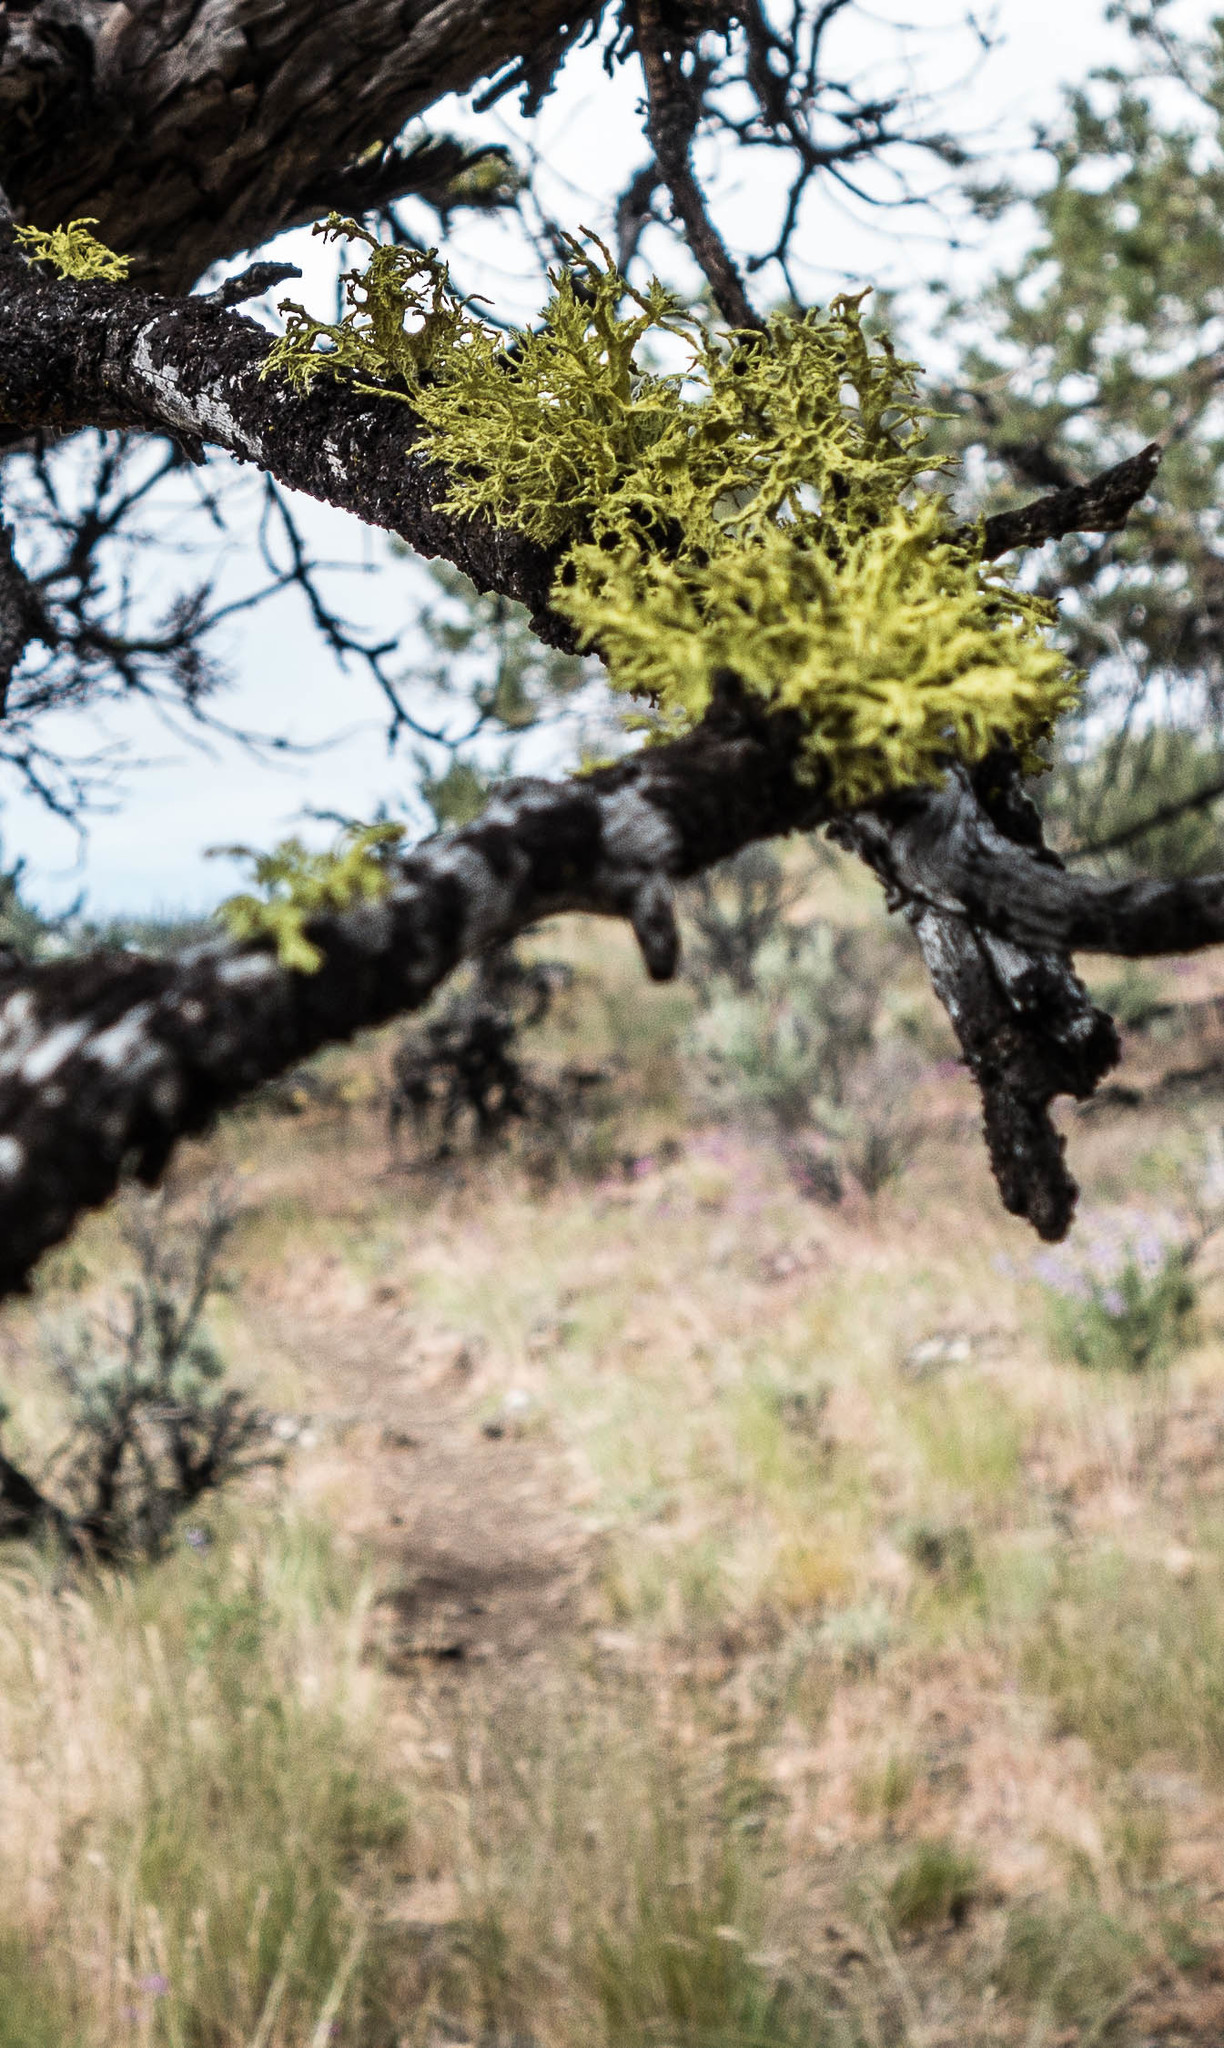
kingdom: Fungi
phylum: Ascomycota
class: Lecanoromycetes
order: Lecanorales
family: Parmeliaceae
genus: Letharia
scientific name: Letharia vulpina
